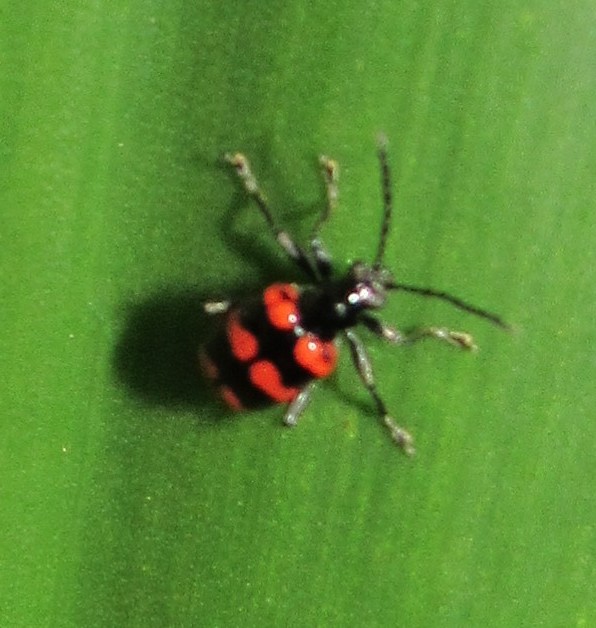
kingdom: Animalia
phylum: Arthropoda
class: Insecta
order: Coleoptera
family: Chrysomelidae
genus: Neolema
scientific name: Neolema
